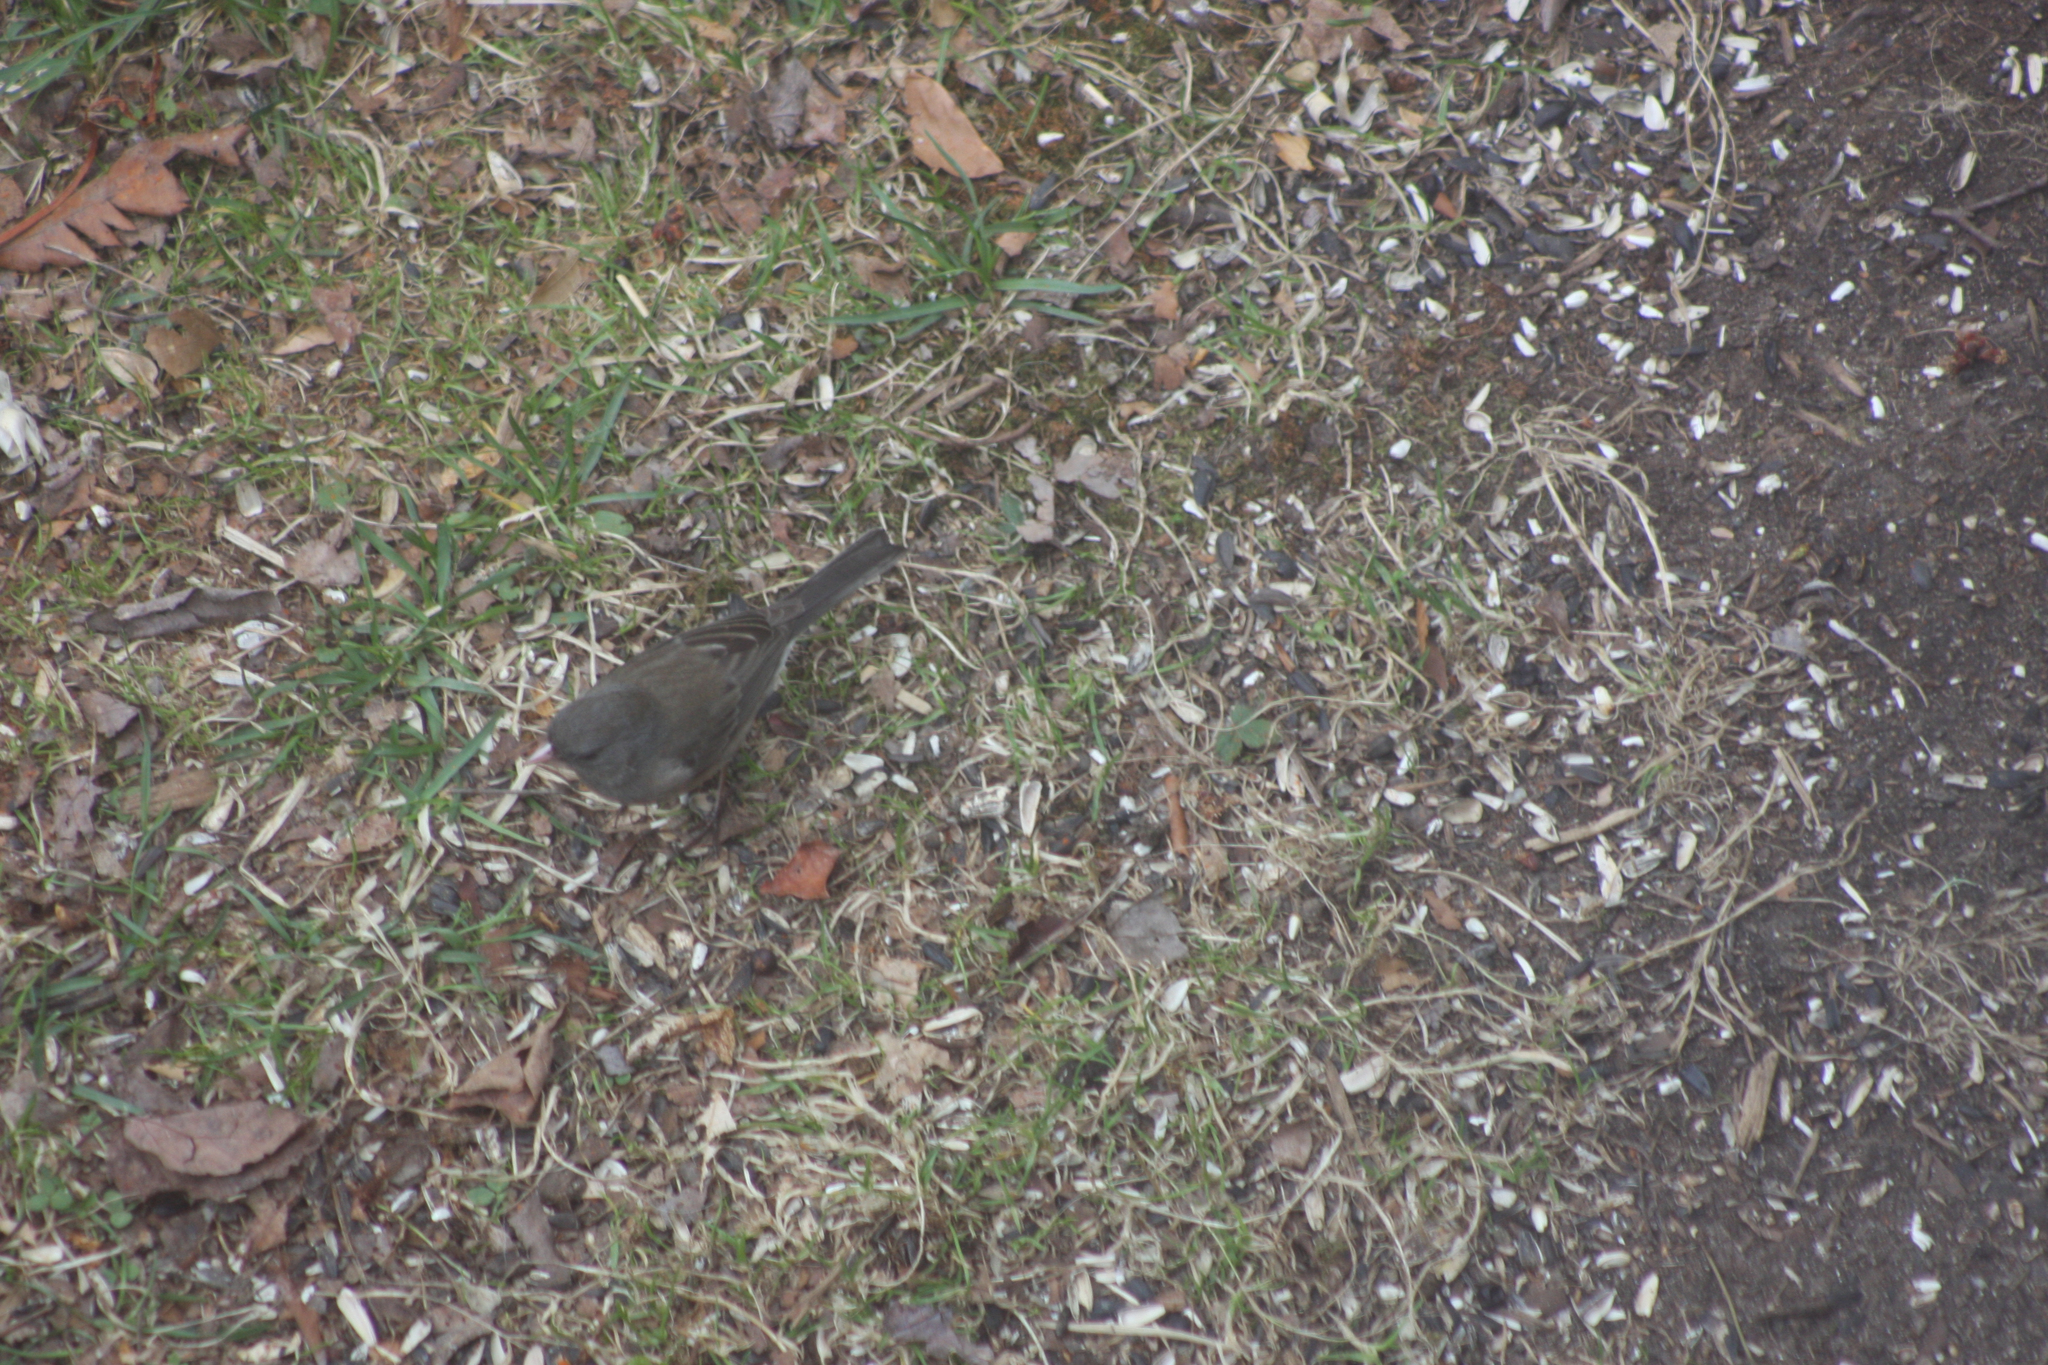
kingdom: Animalia
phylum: Chordata
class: Aves
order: Passeriformes
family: Passerellidae
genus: Junco
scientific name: Junco hyemalis
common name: Dark-eyed junco
